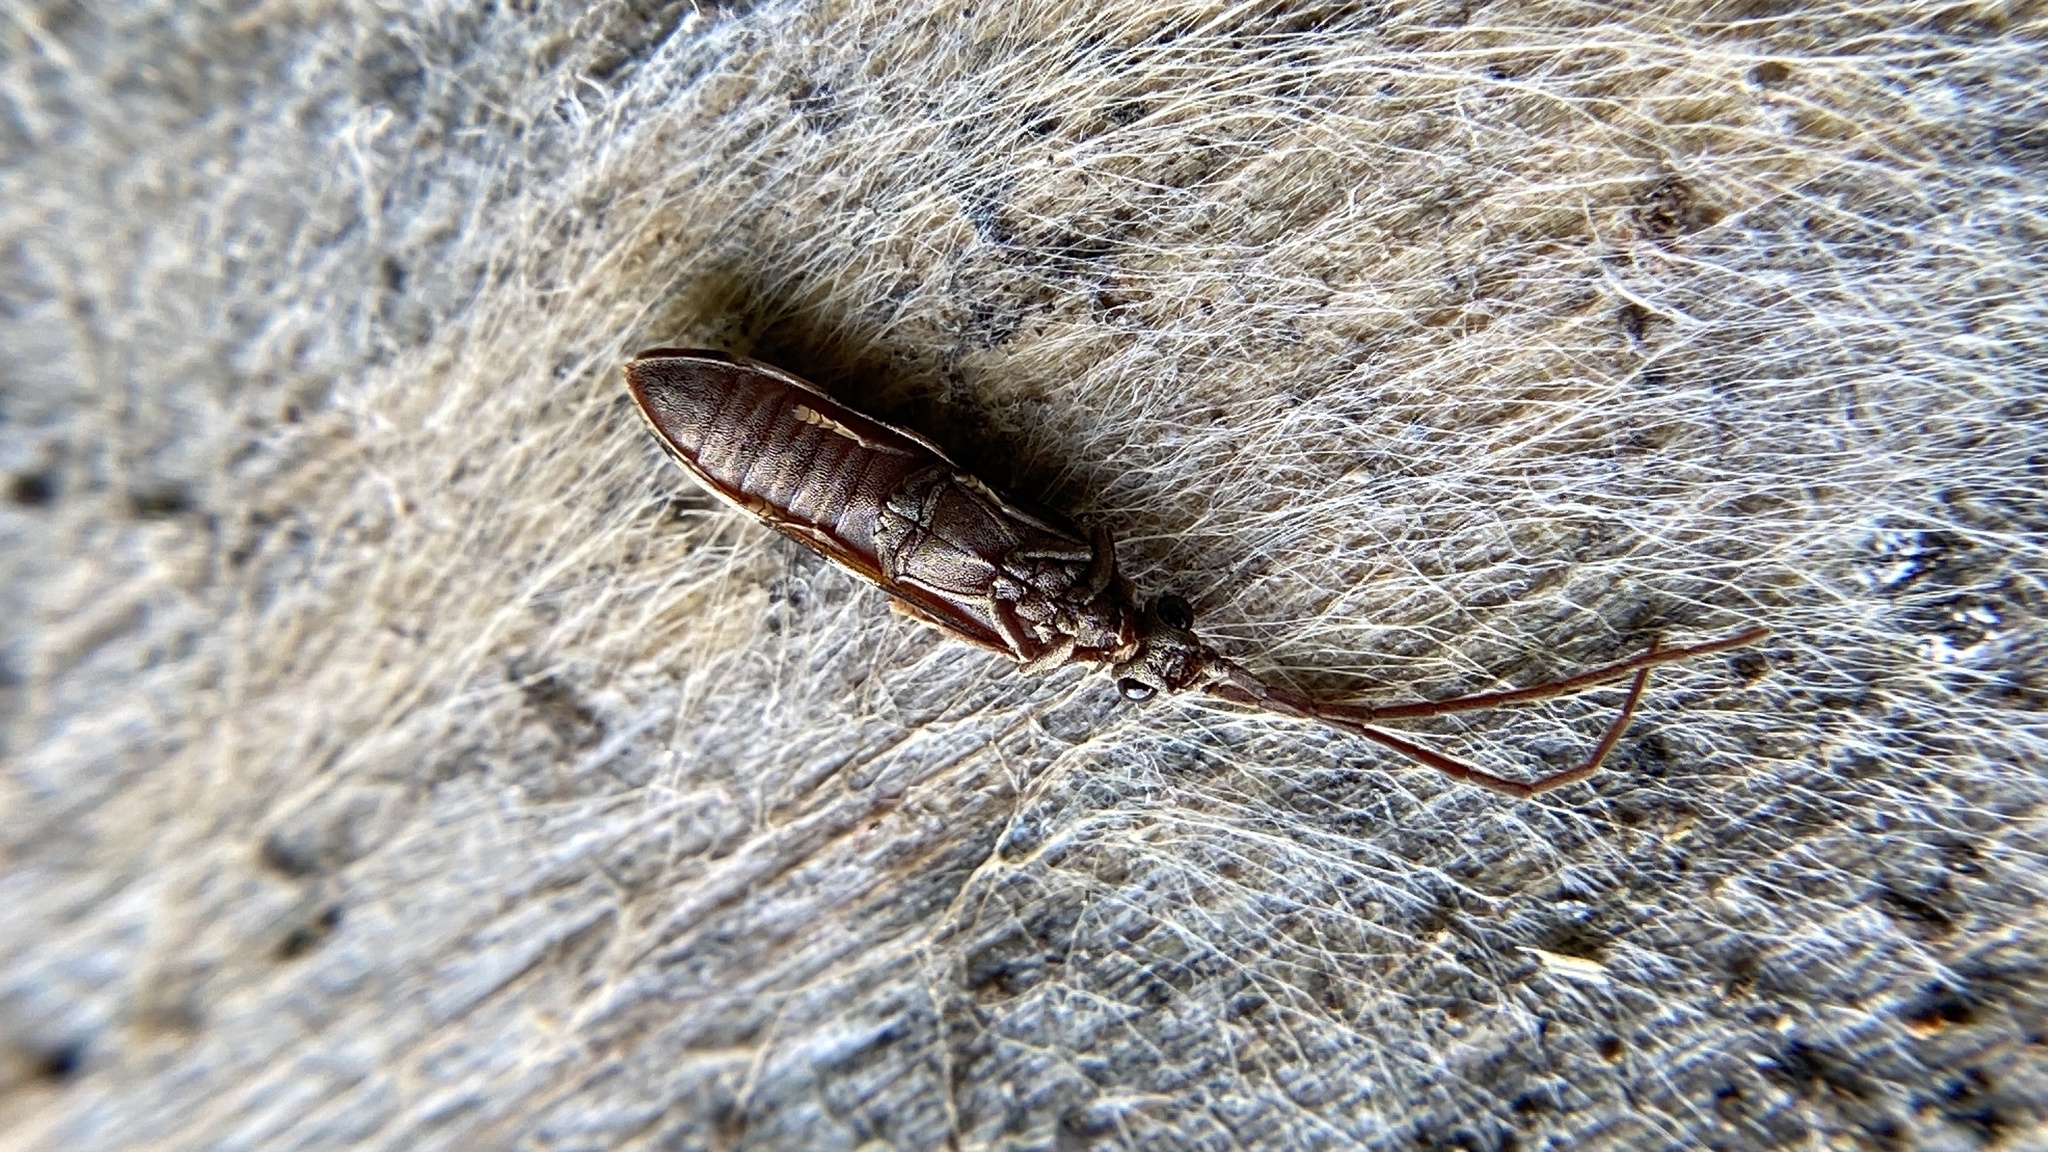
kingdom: Animalia
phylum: Arthropoda
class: Insecta
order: Coleoptera
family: Cupedidae
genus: Tenomerga
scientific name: Tenomerga cinerea
